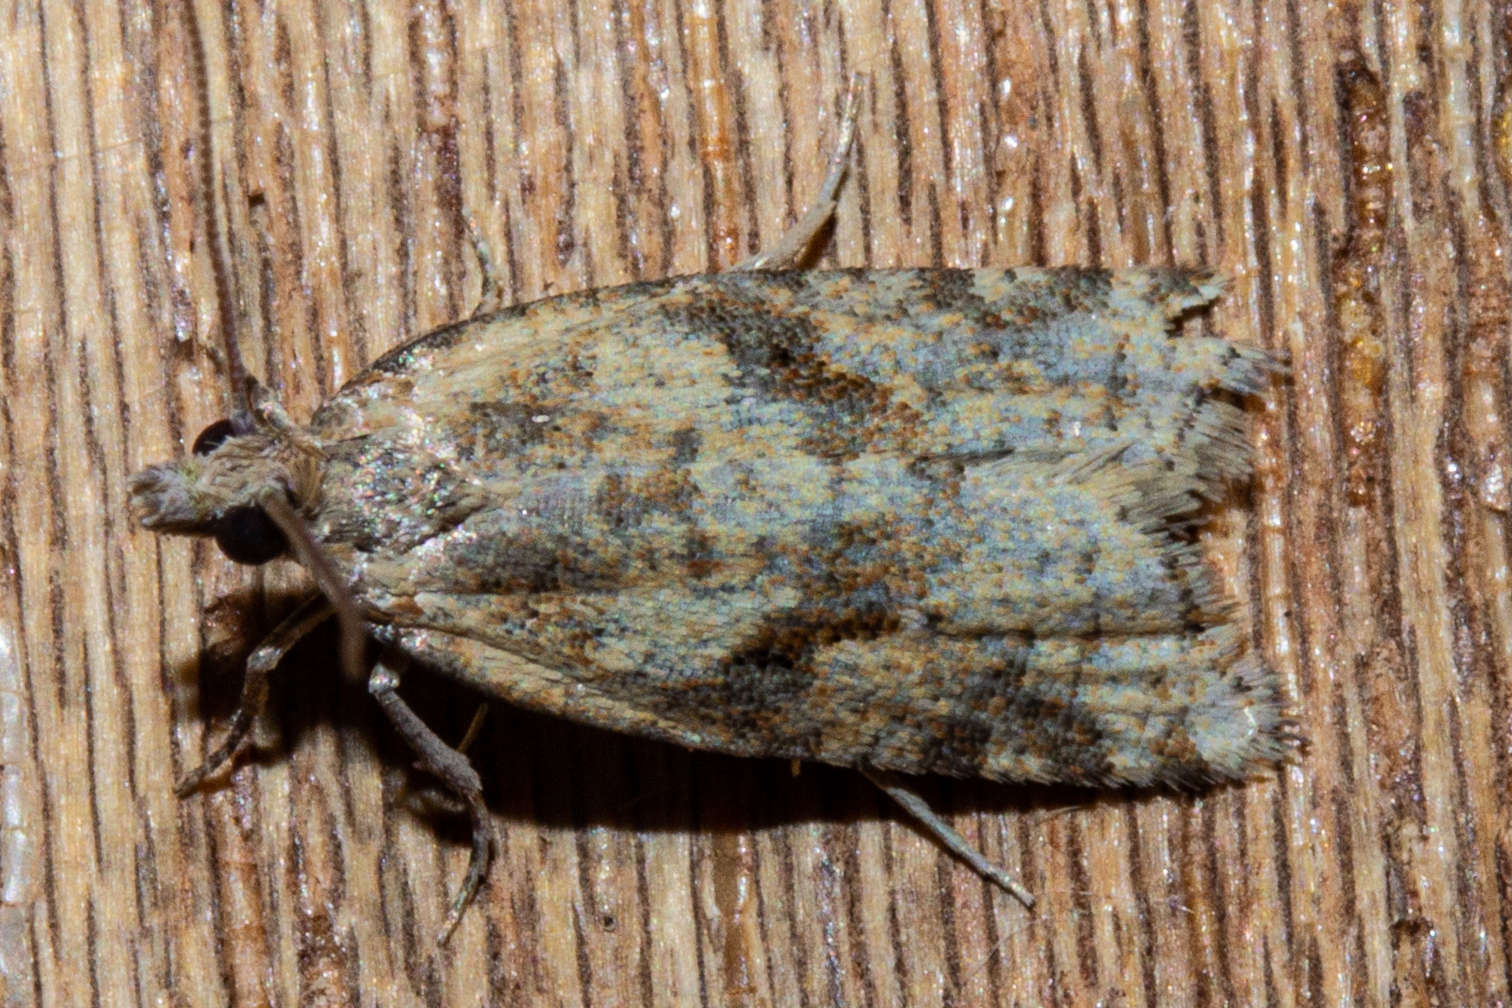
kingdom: Animalia
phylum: Arthropoda
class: Insecta
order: Lepidoptera
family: Tortricidae
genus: Capua
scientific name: Capua semiferana
